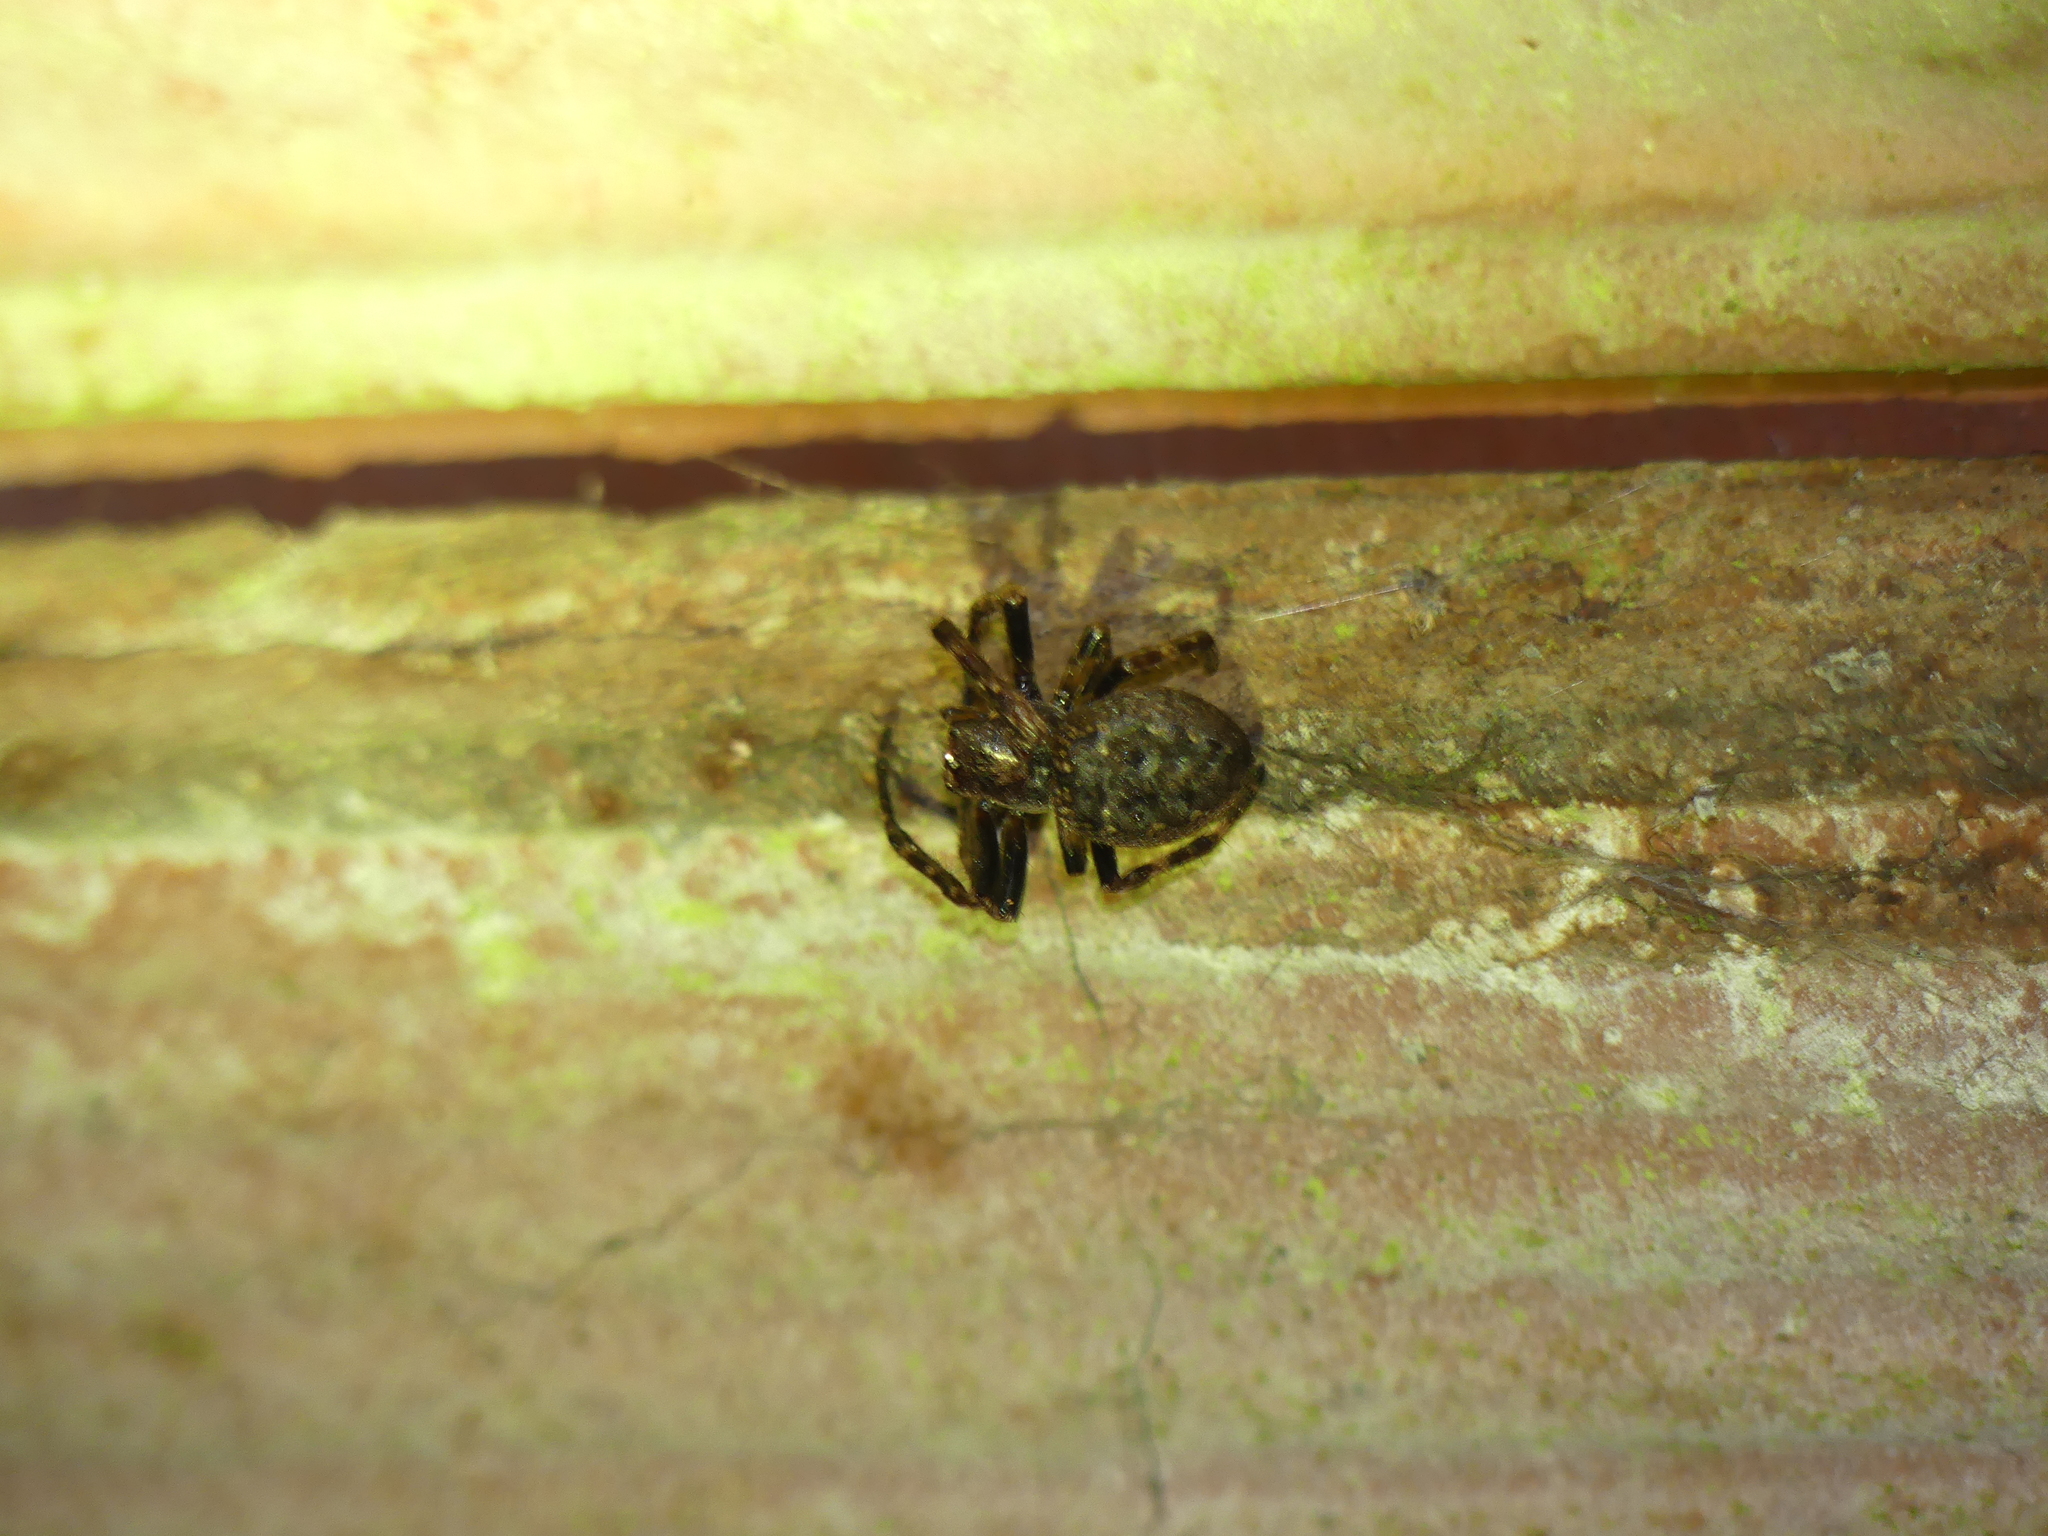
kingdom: Animalia
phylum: Arthropoda
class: Arachnida
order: Araneae
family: Araneidae
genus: Nuctenea
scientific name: Nuctenea umbratica
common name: Toad spider
